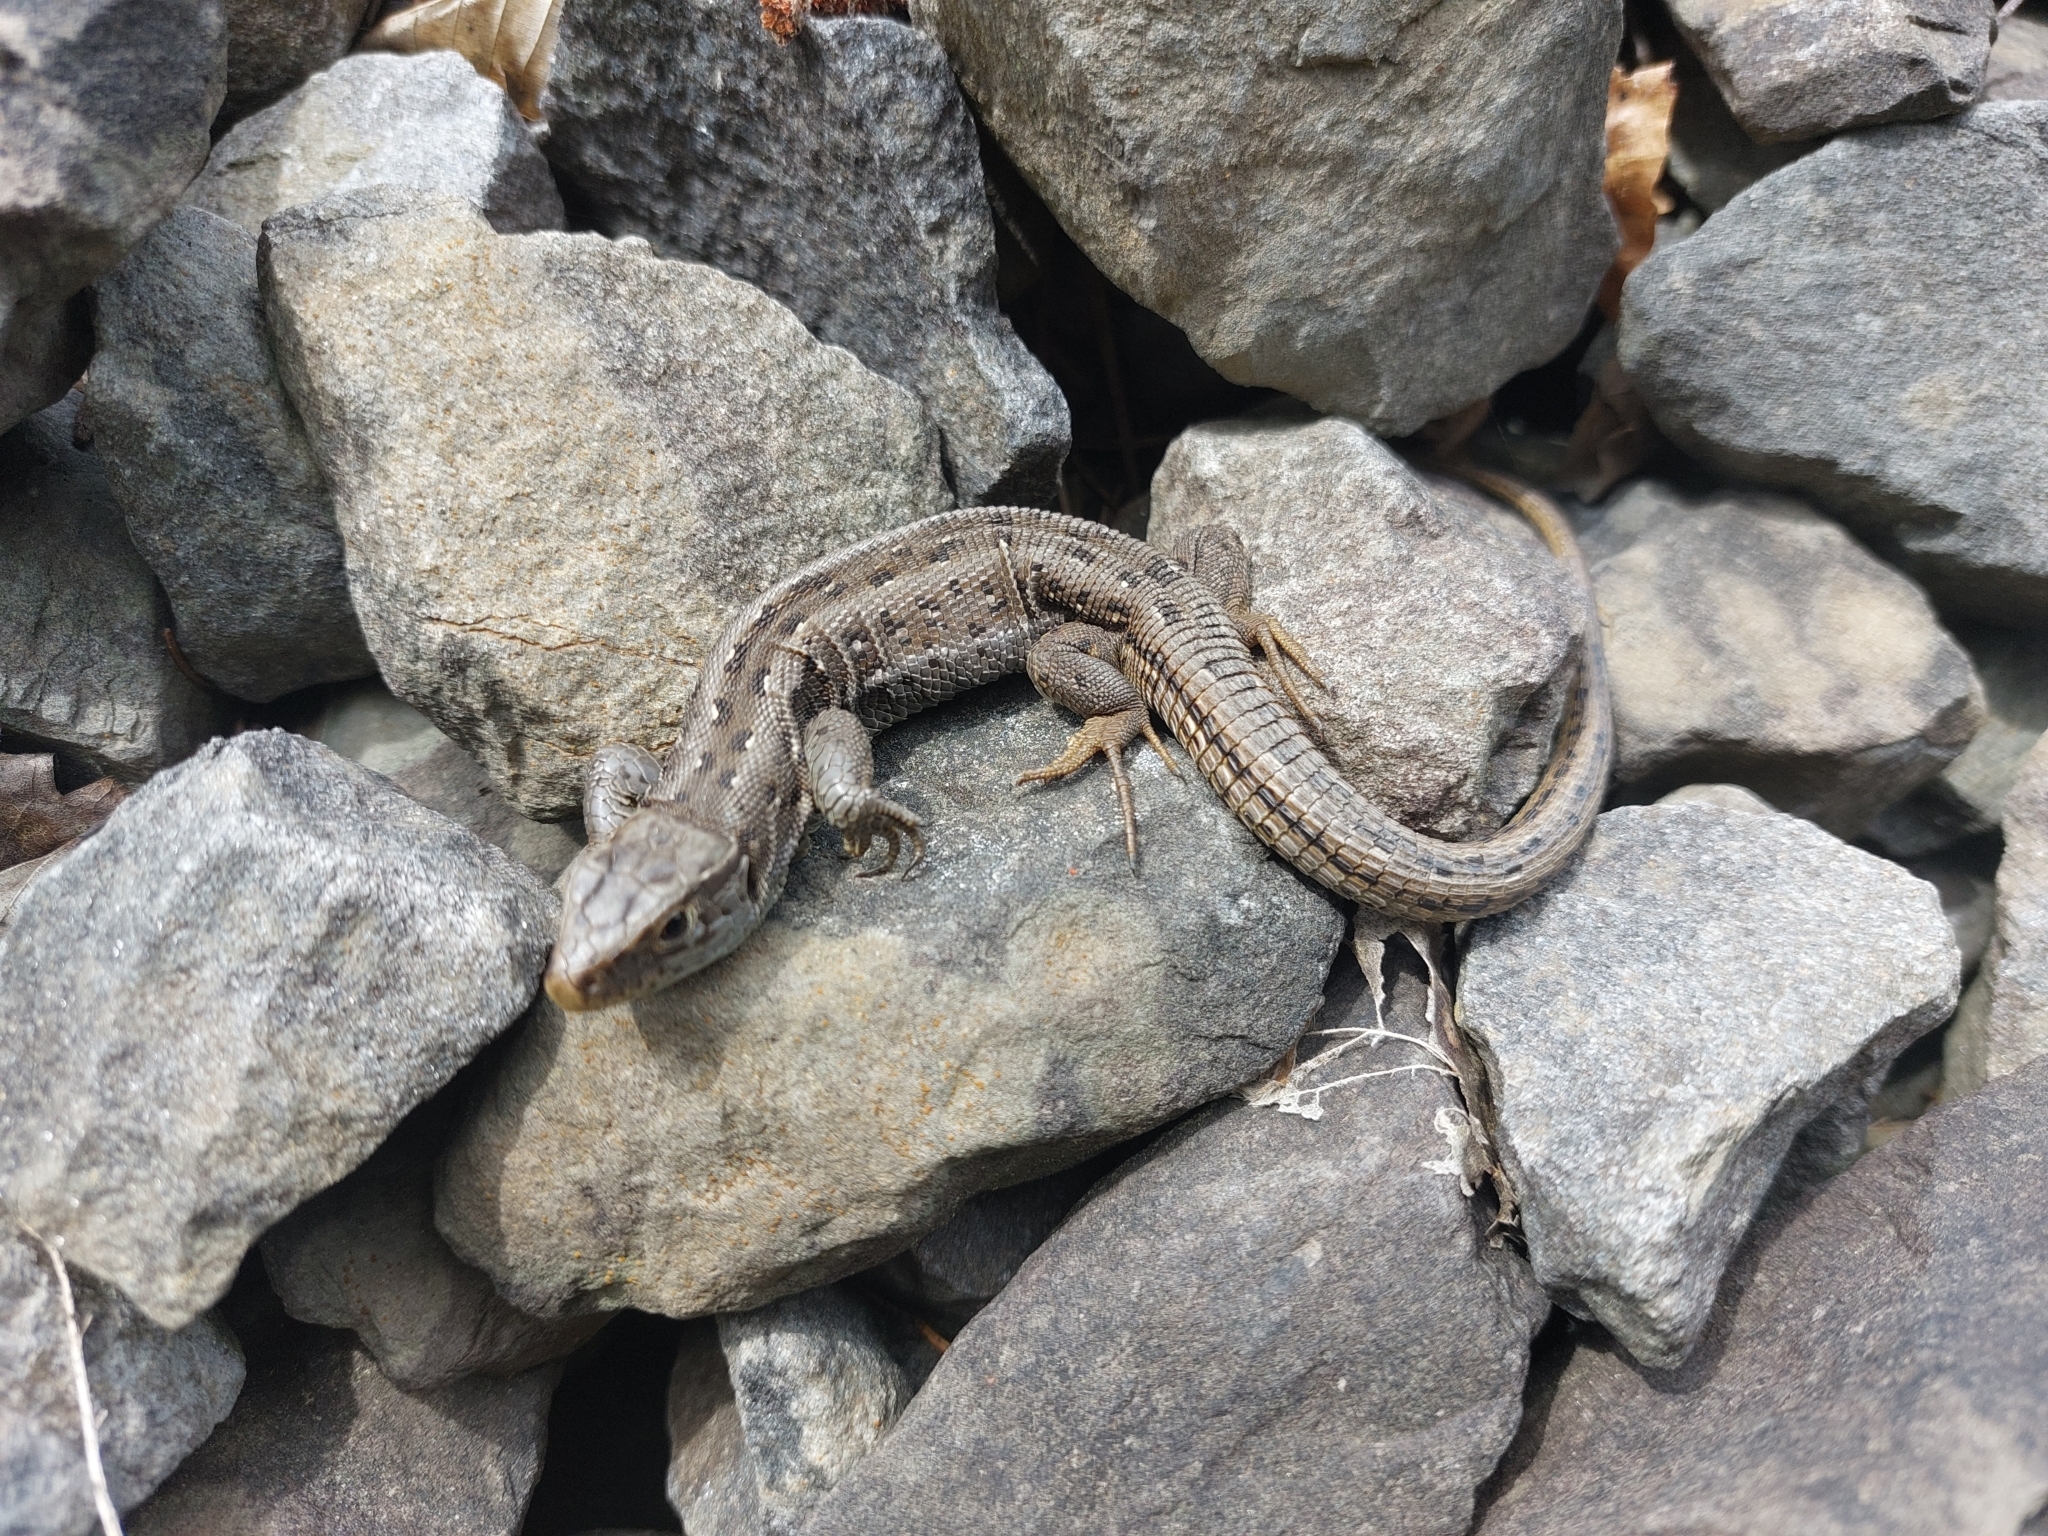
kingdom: Animalia
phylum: Chordata
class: Squamata
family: Lacertidae
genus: Lacerta
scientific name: Lacerta agilis
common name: Sand lizard
